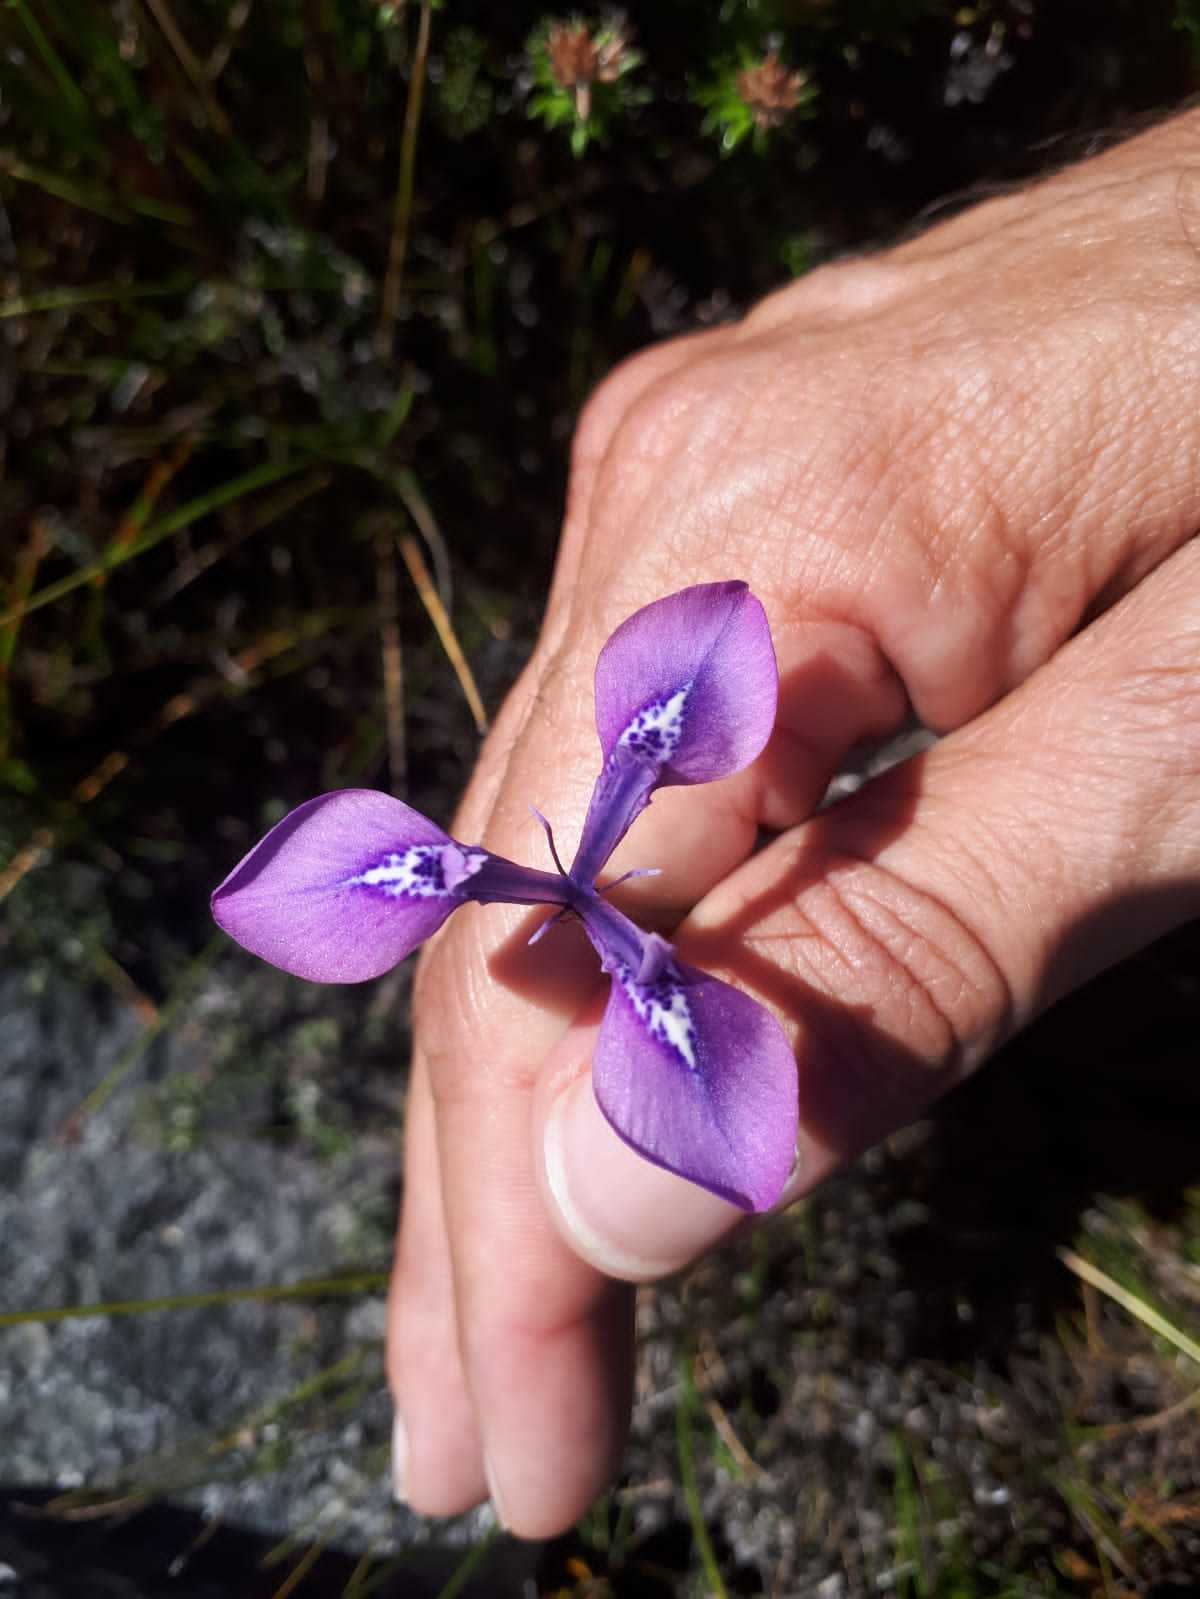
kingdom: Plantae
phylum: Tracheophyta
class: Liliopsida
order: Asparagales
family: Iridaceae
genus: Moraea
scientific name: Moraea tripetala
